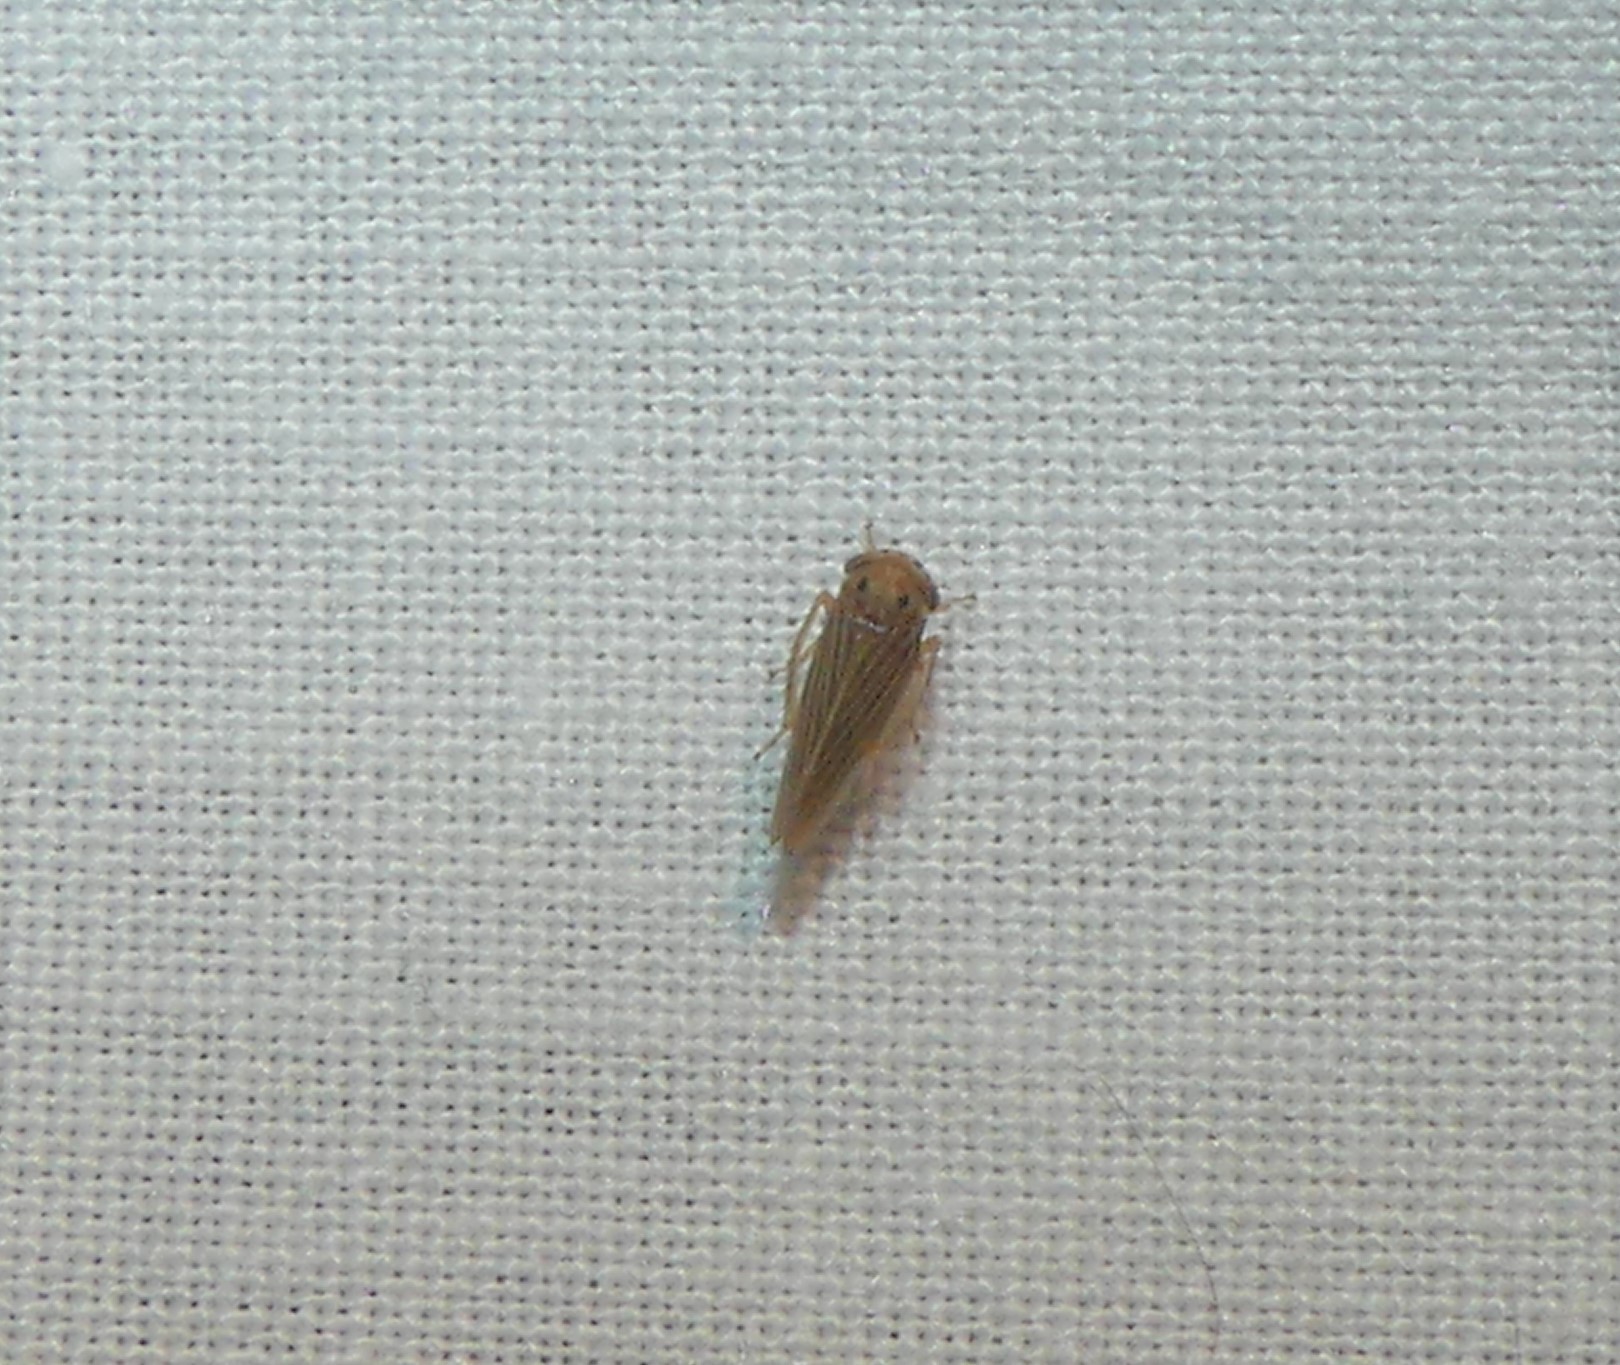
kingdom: Animalia
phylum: Arthropoda
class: Insecta
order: Hemiptera
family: Cicadellidae
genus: Agallia
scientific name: Agallia constricta
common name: The constricted leafhopper
